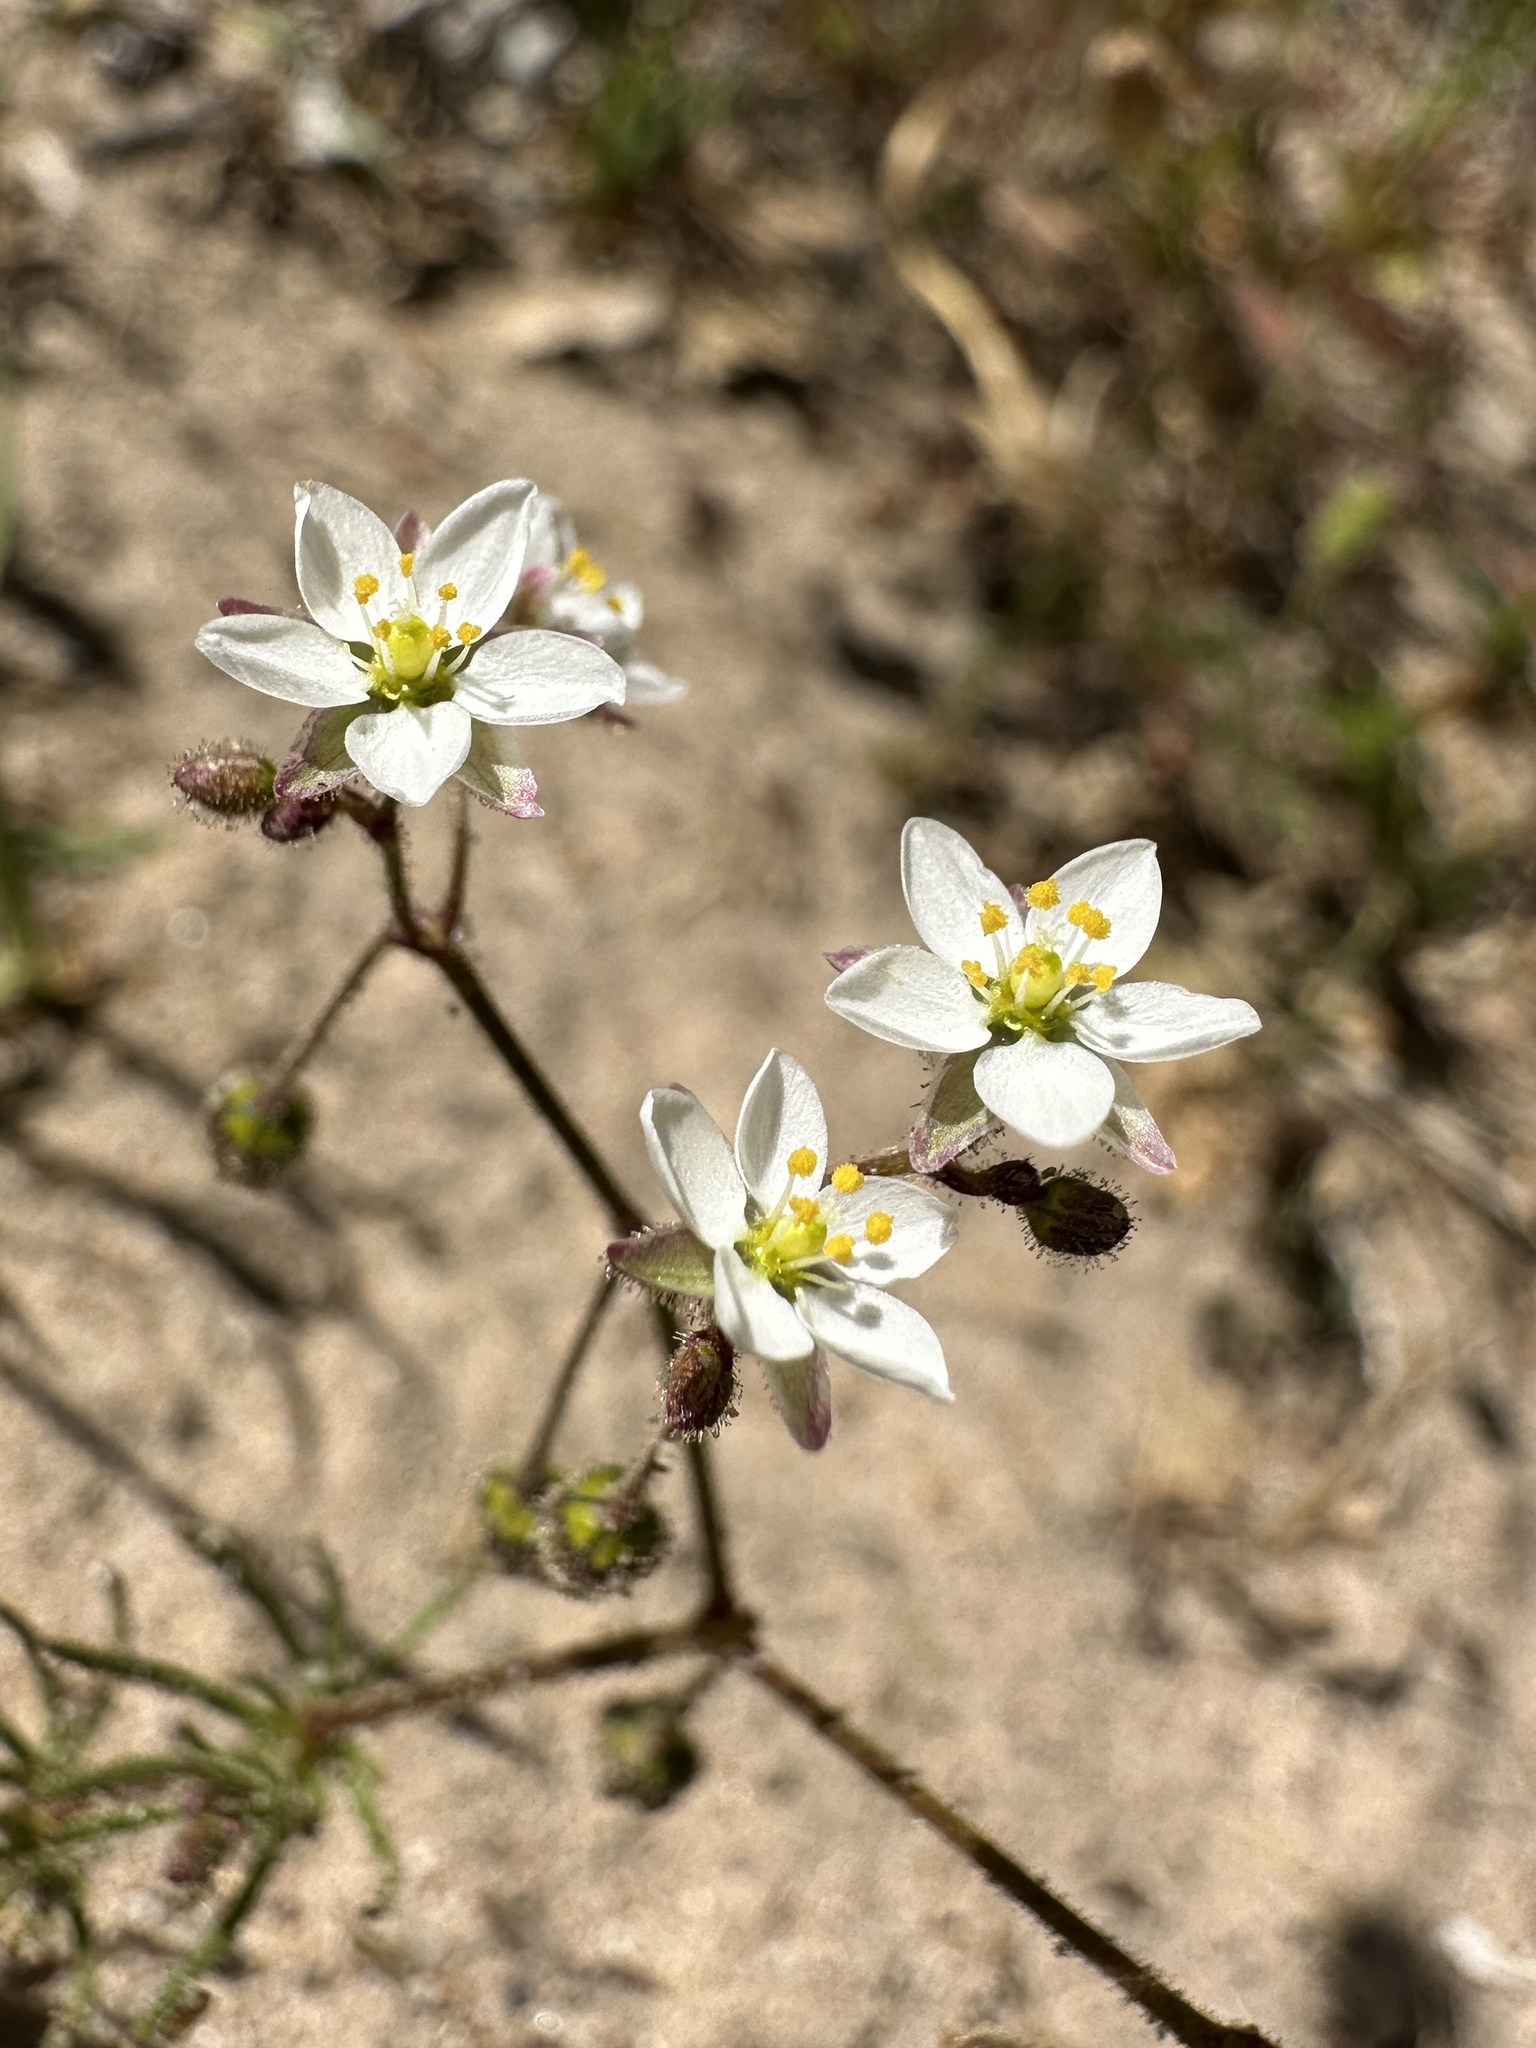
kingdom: Plantae
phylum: Tracheophyta
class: Magnoliopsida
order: Caryophyllales
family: Caryophyllaceae
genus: Spergula
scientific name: Spergula arvensis
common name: Corn spurrey
